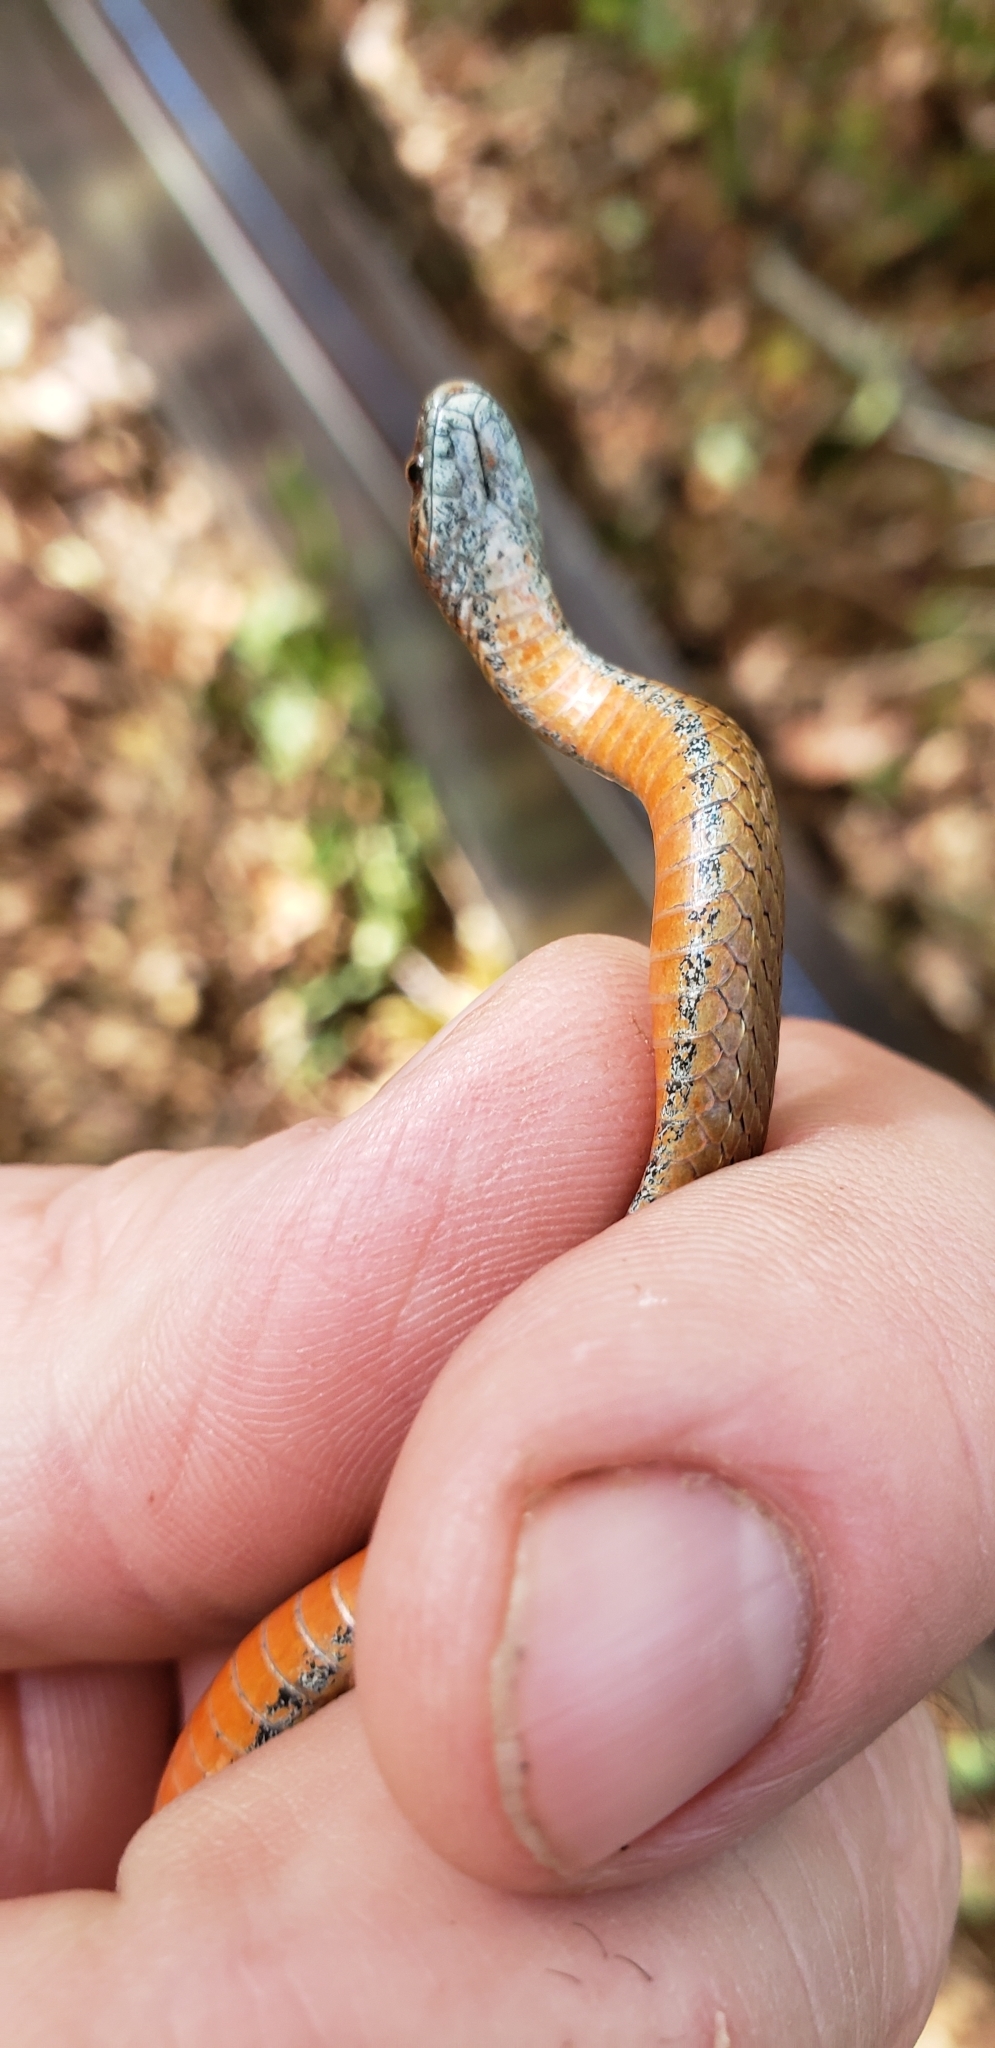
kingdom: Animalia
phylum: Chordata
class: Squamata
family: Colubridae
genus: Storeria
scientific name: Storeria occipitomaculata
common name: Redbelly snake
